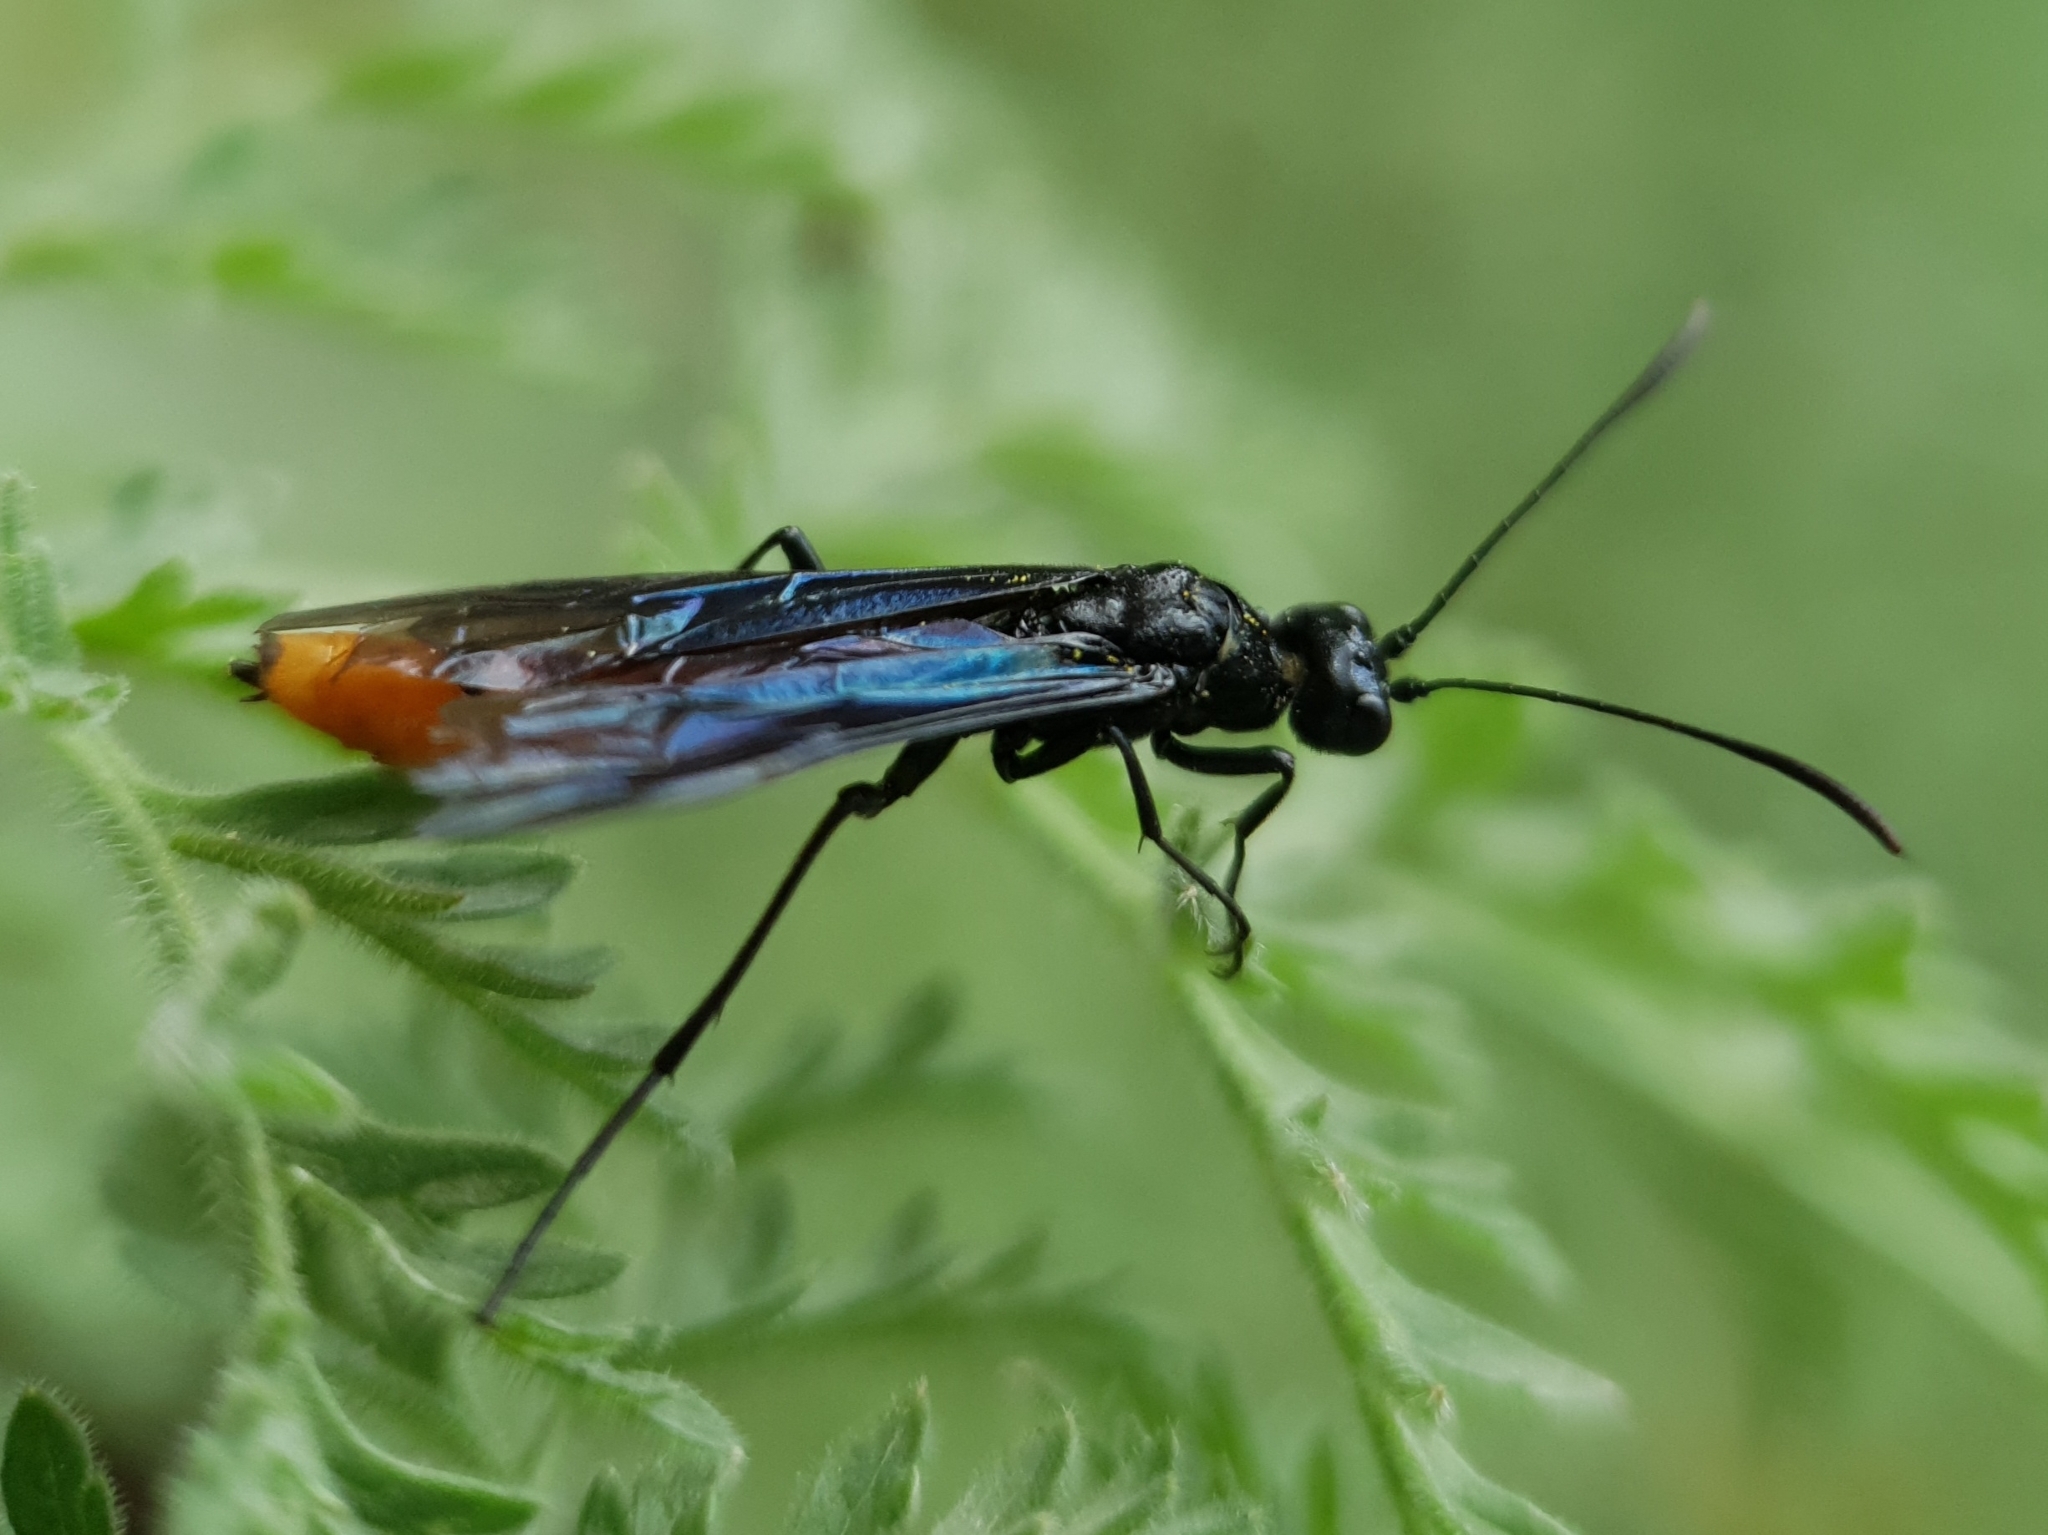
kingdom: Animalia
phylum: Arthropoda
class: Insecta
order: Hymenoptera
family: Ichneumonidae
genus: Ichneumon
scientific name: Ichneumon pygmaeus
